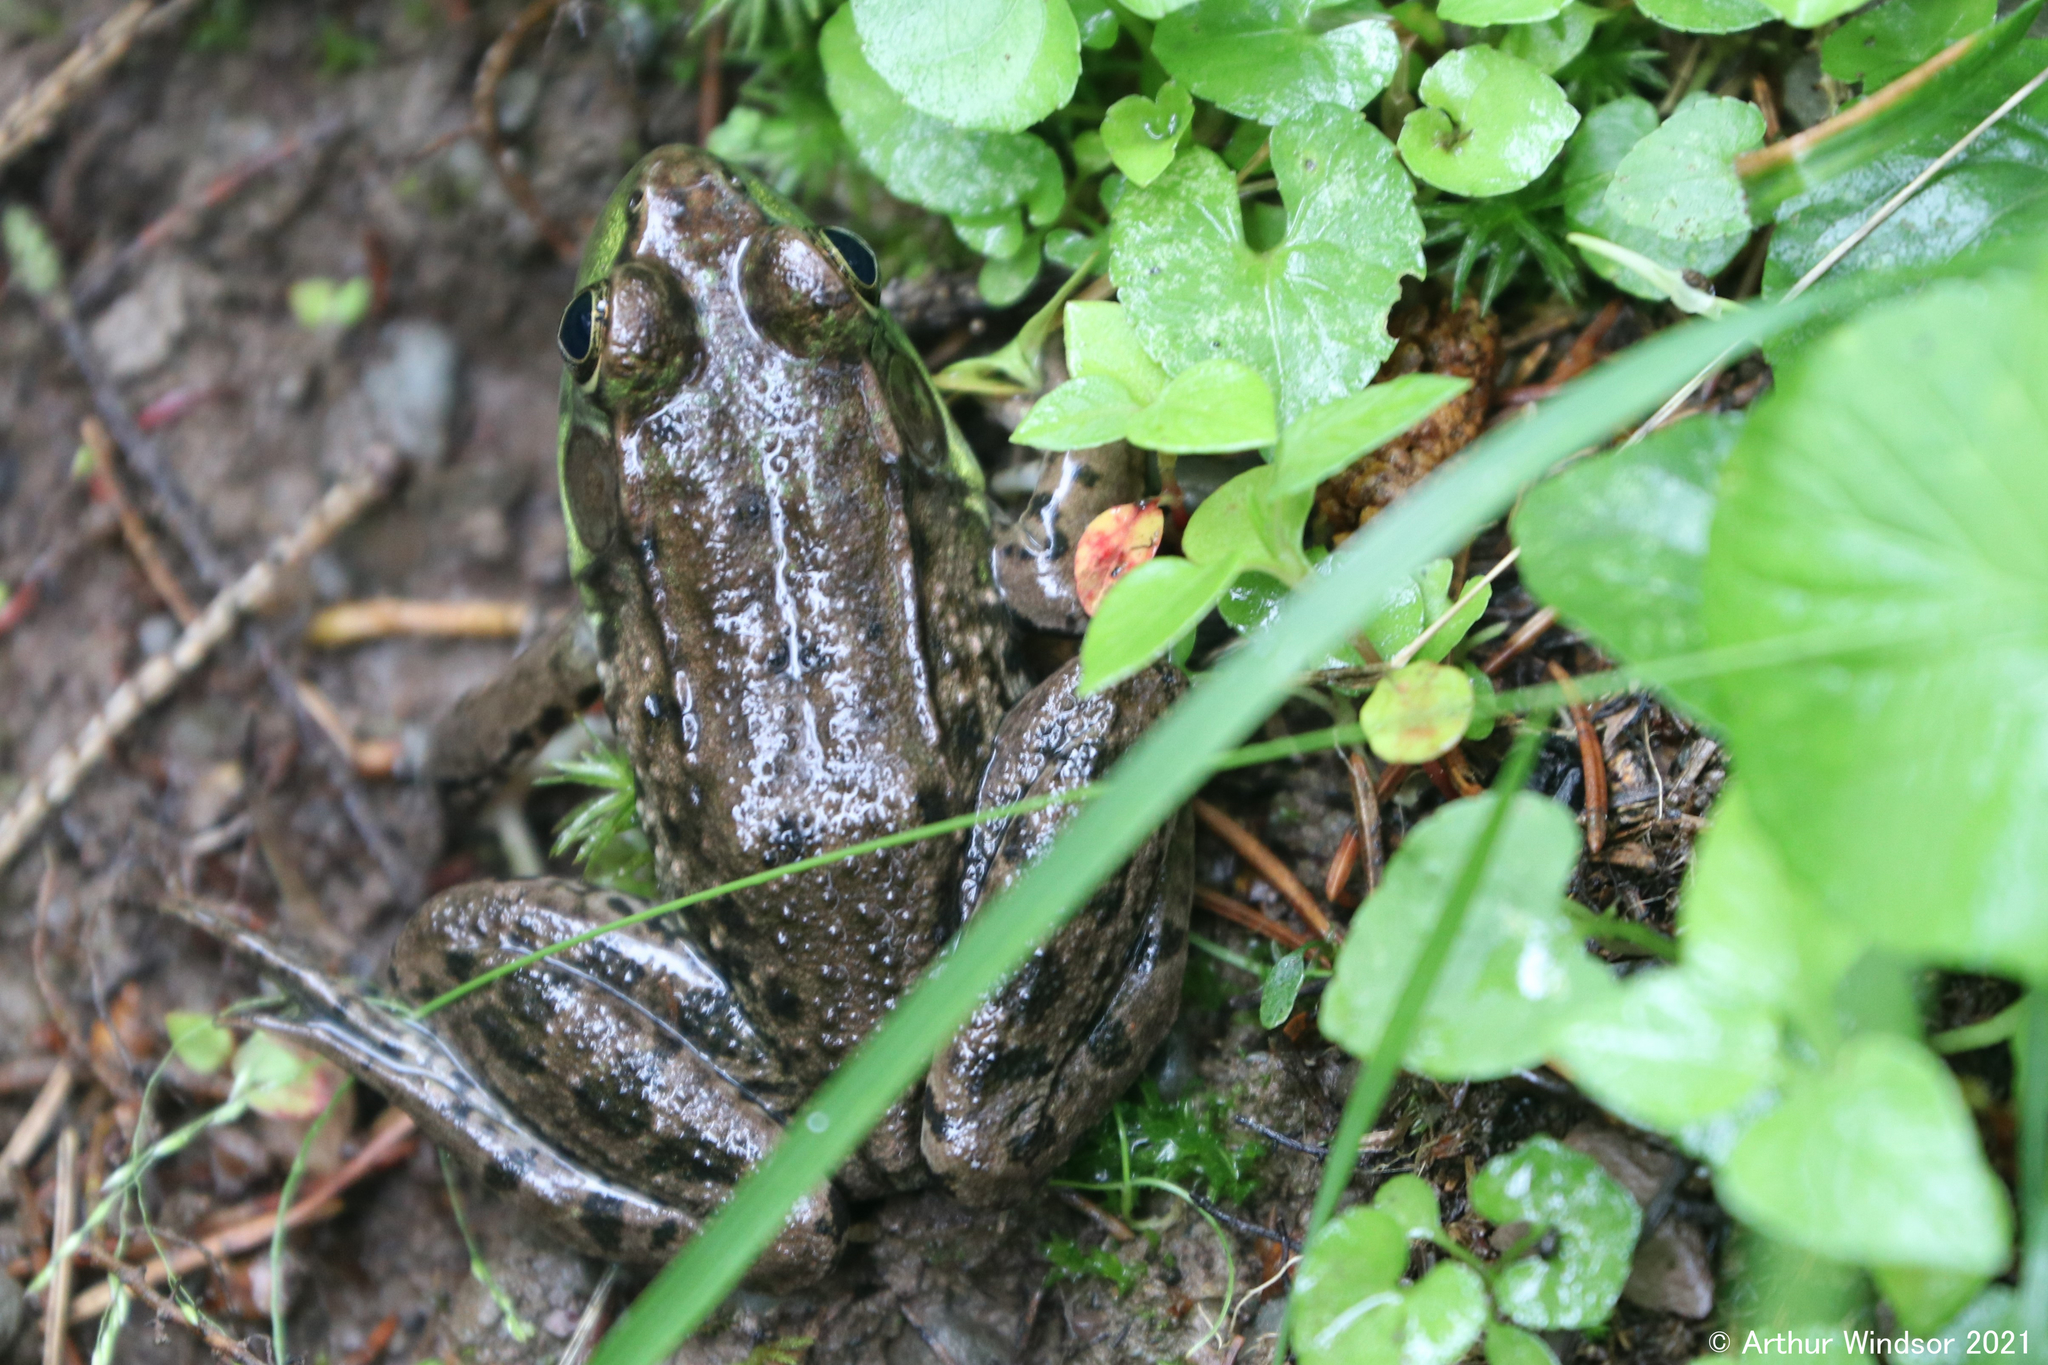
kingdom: Animalia
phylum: Chordata
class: Amphibia
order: Anura
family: Ranidae
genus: Lithobates
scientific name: Lithobates clamitans
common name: Green frog
